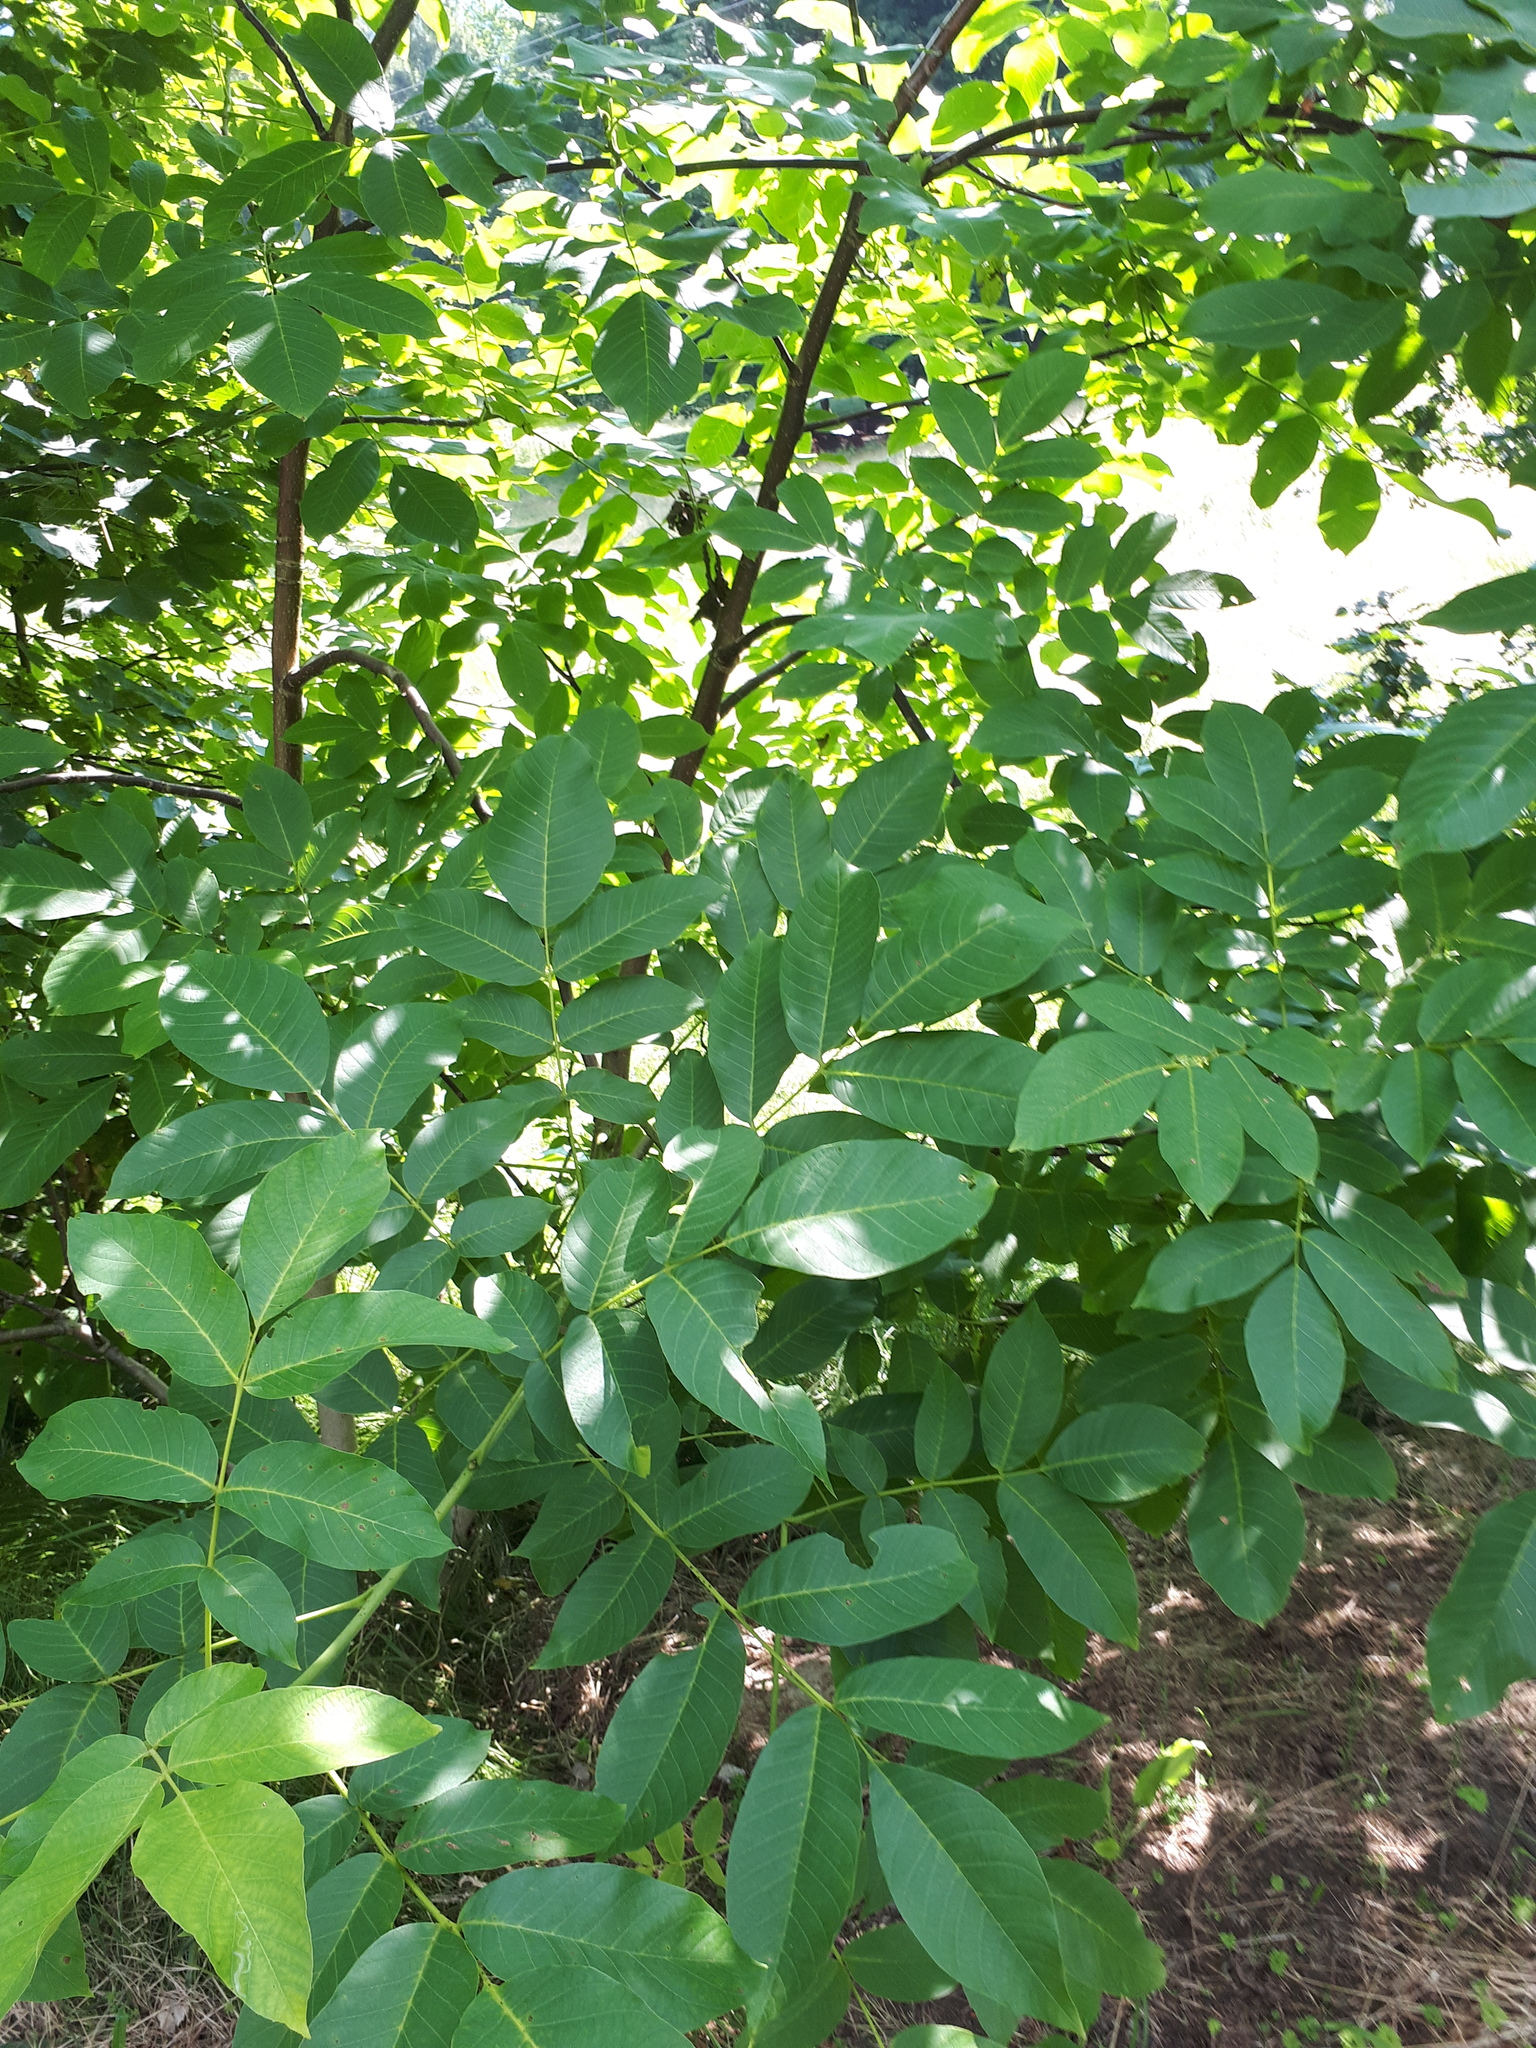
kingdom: Plantae
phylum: Tracheophyta
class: Magnoliopsida
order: Fagales
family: Juglandaceae
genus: Juglans
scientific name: Juglans regia
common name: Walnut
